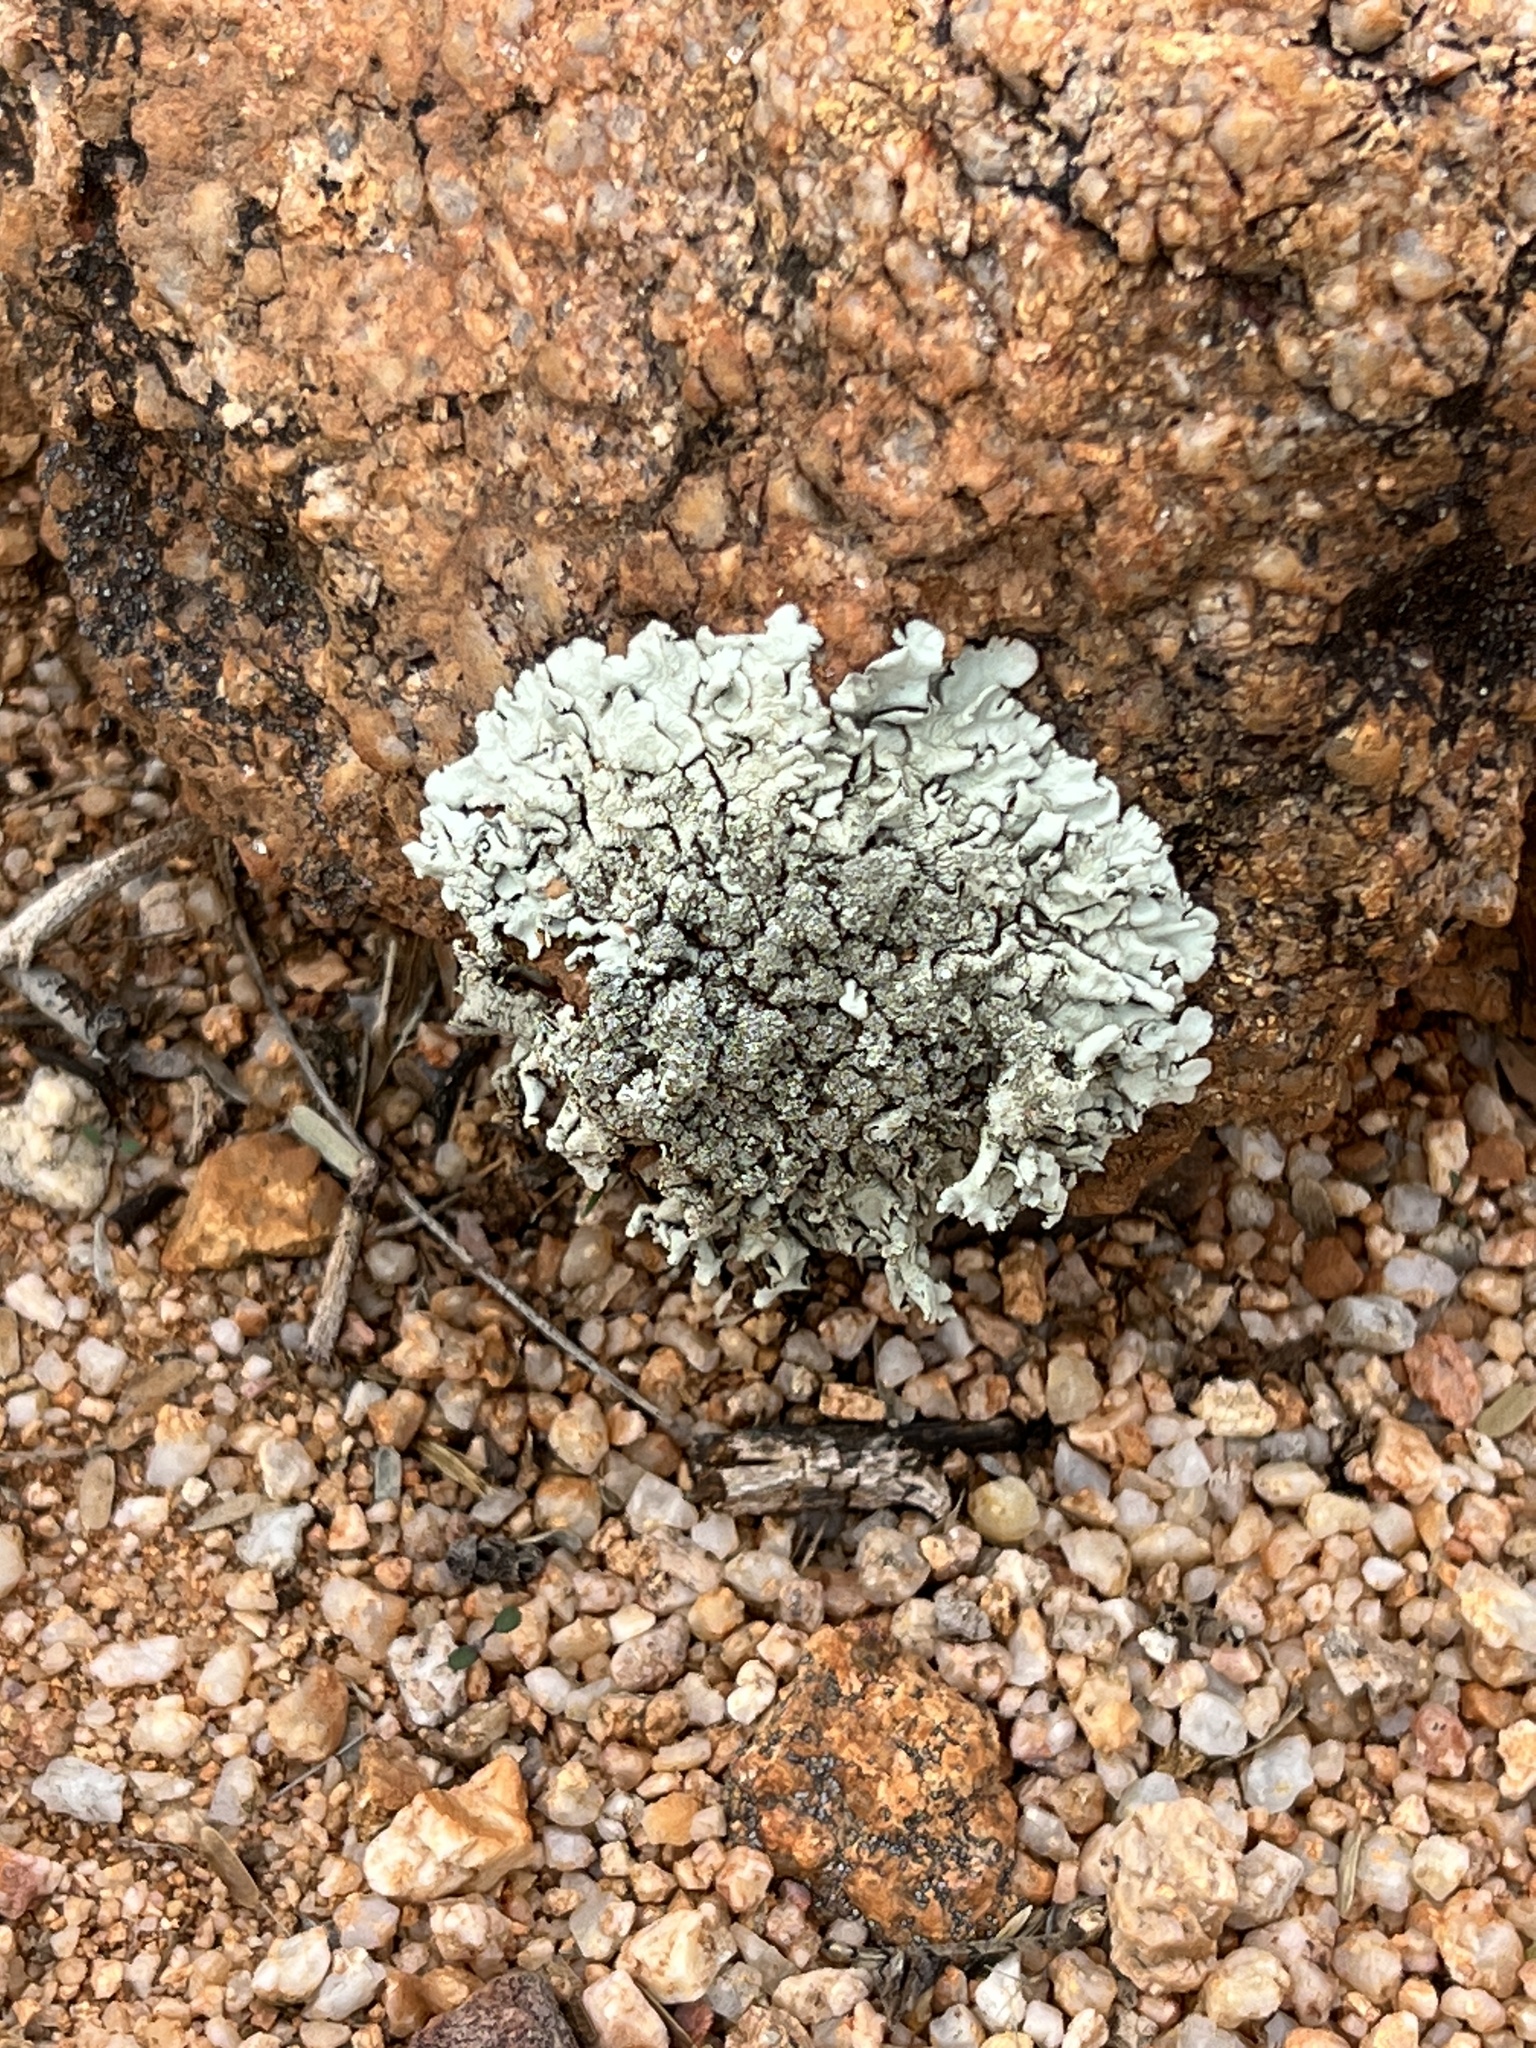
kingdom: Fungi
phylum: Ascomycota
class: Lecanoromycetes
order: Lecanorales
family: Parmeliaceae
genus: Xanthoparmelia
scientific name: Xanthoparmelia cumberlandia
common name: Cumberland rock shield
